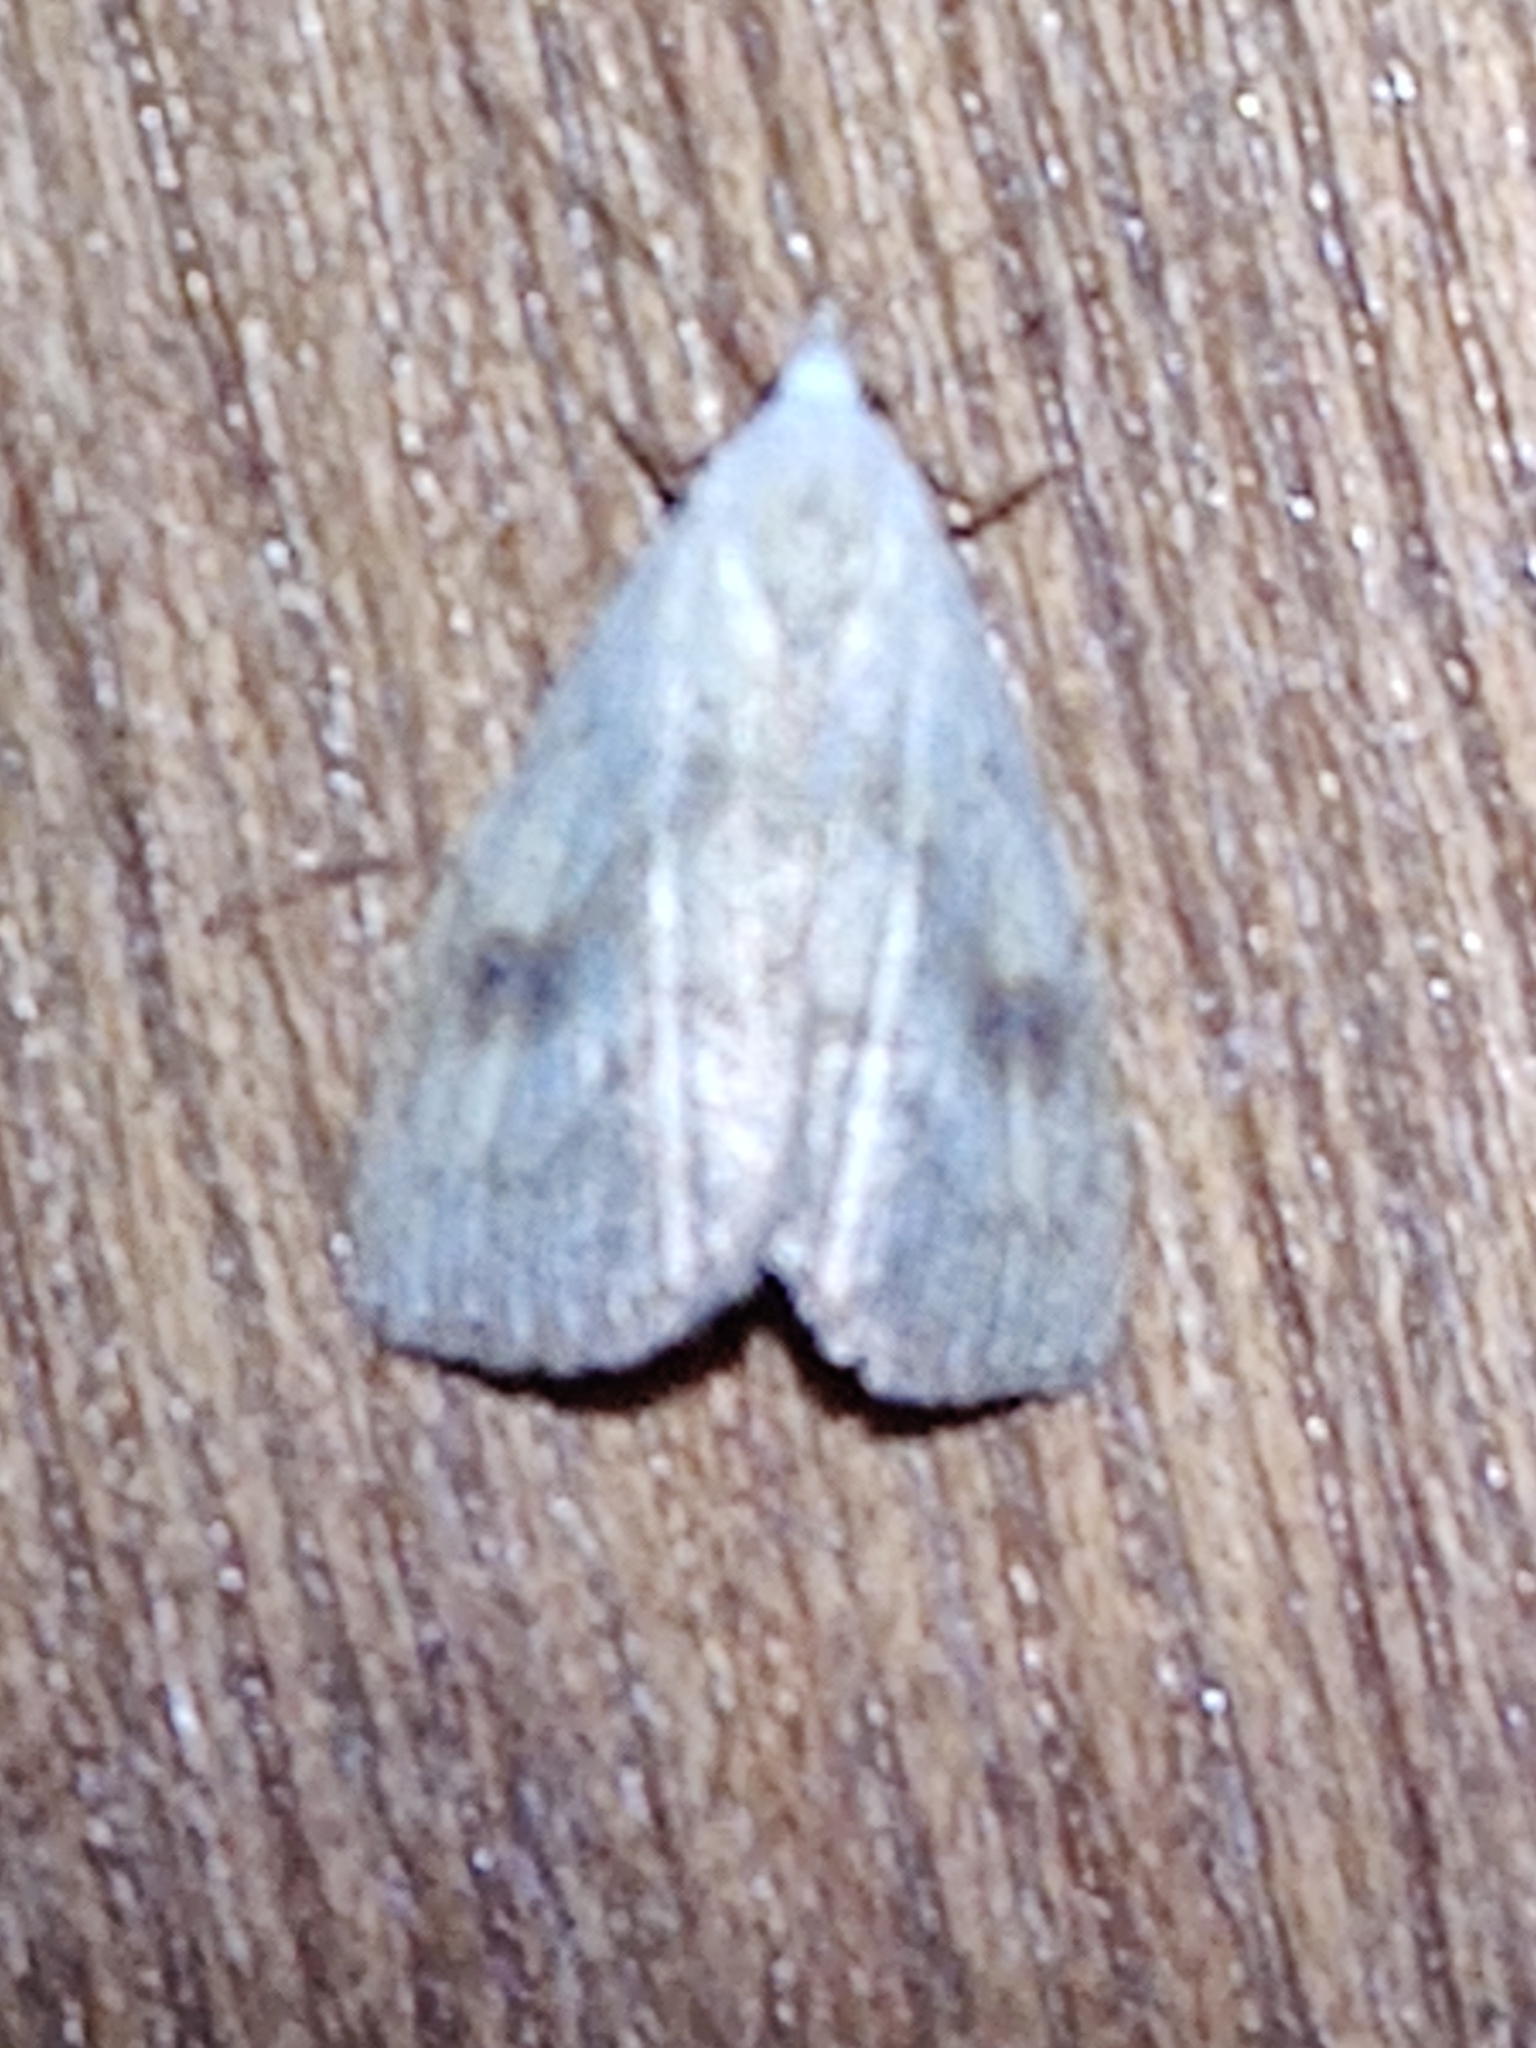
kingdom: Animalia
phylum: Arthropoda
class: Insecta
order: Lepidoptera
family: Erebidae
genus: Rivula
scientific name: Rivula sericealis
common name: Straw dot
